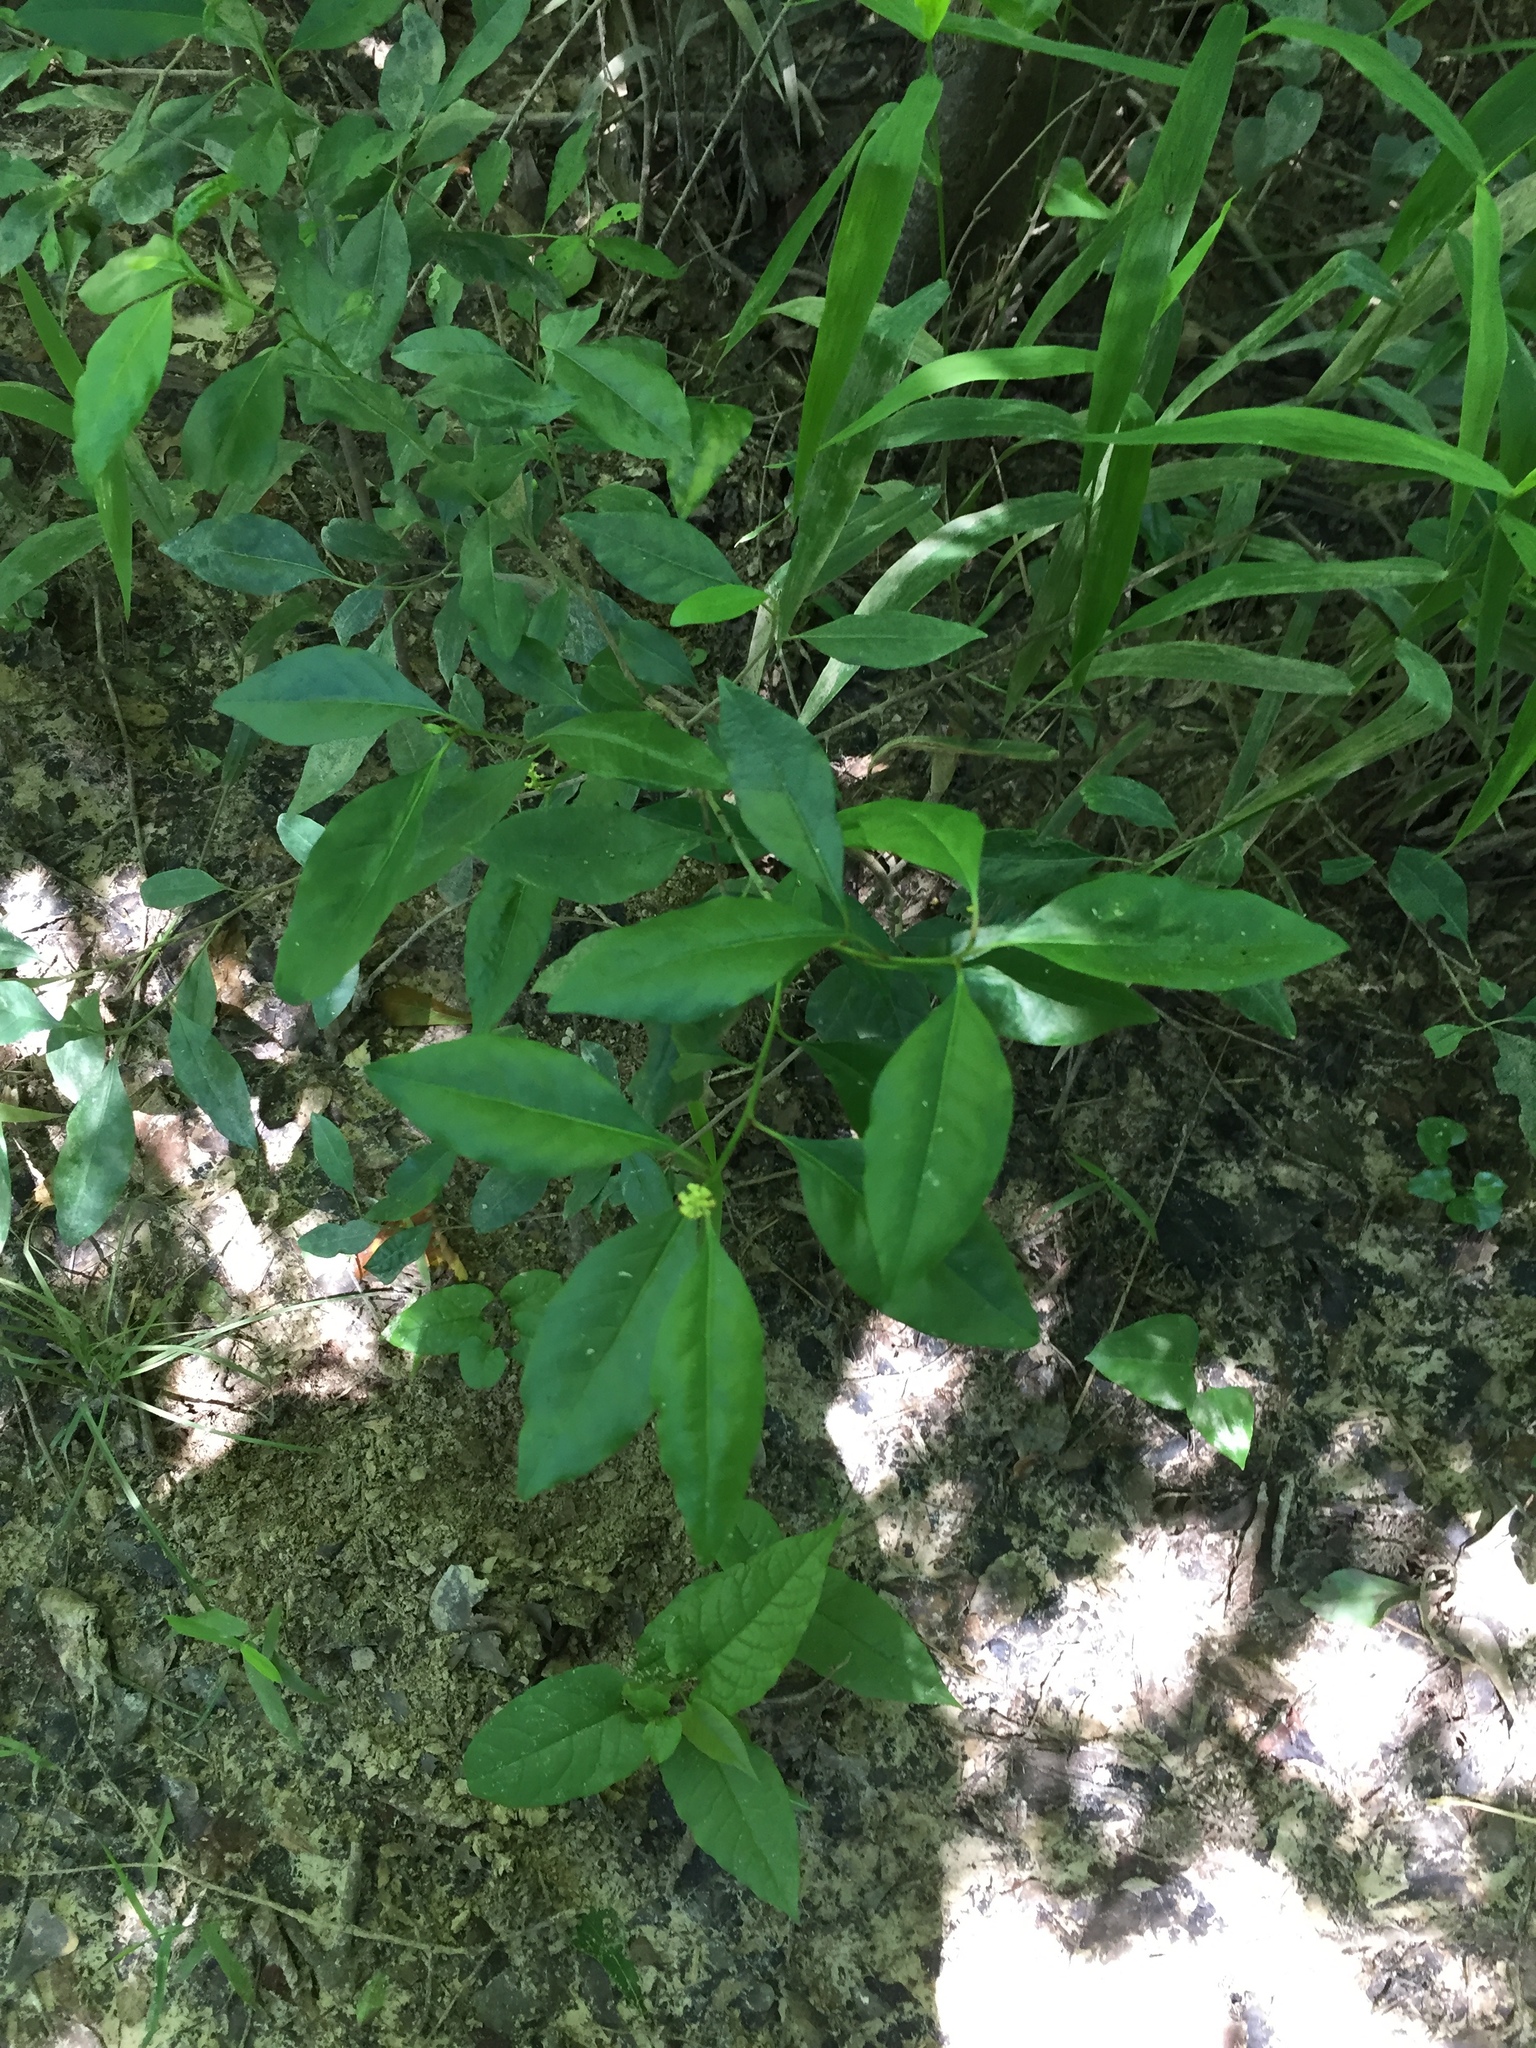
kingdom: Plantae
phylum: Tracheophyta
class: Magnoliopsida
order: Malpighiales
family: Euphorbiaceae
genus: Ditrysinia
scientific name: Ditrysinia fruticosa
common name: Gulf sebastian-bush
